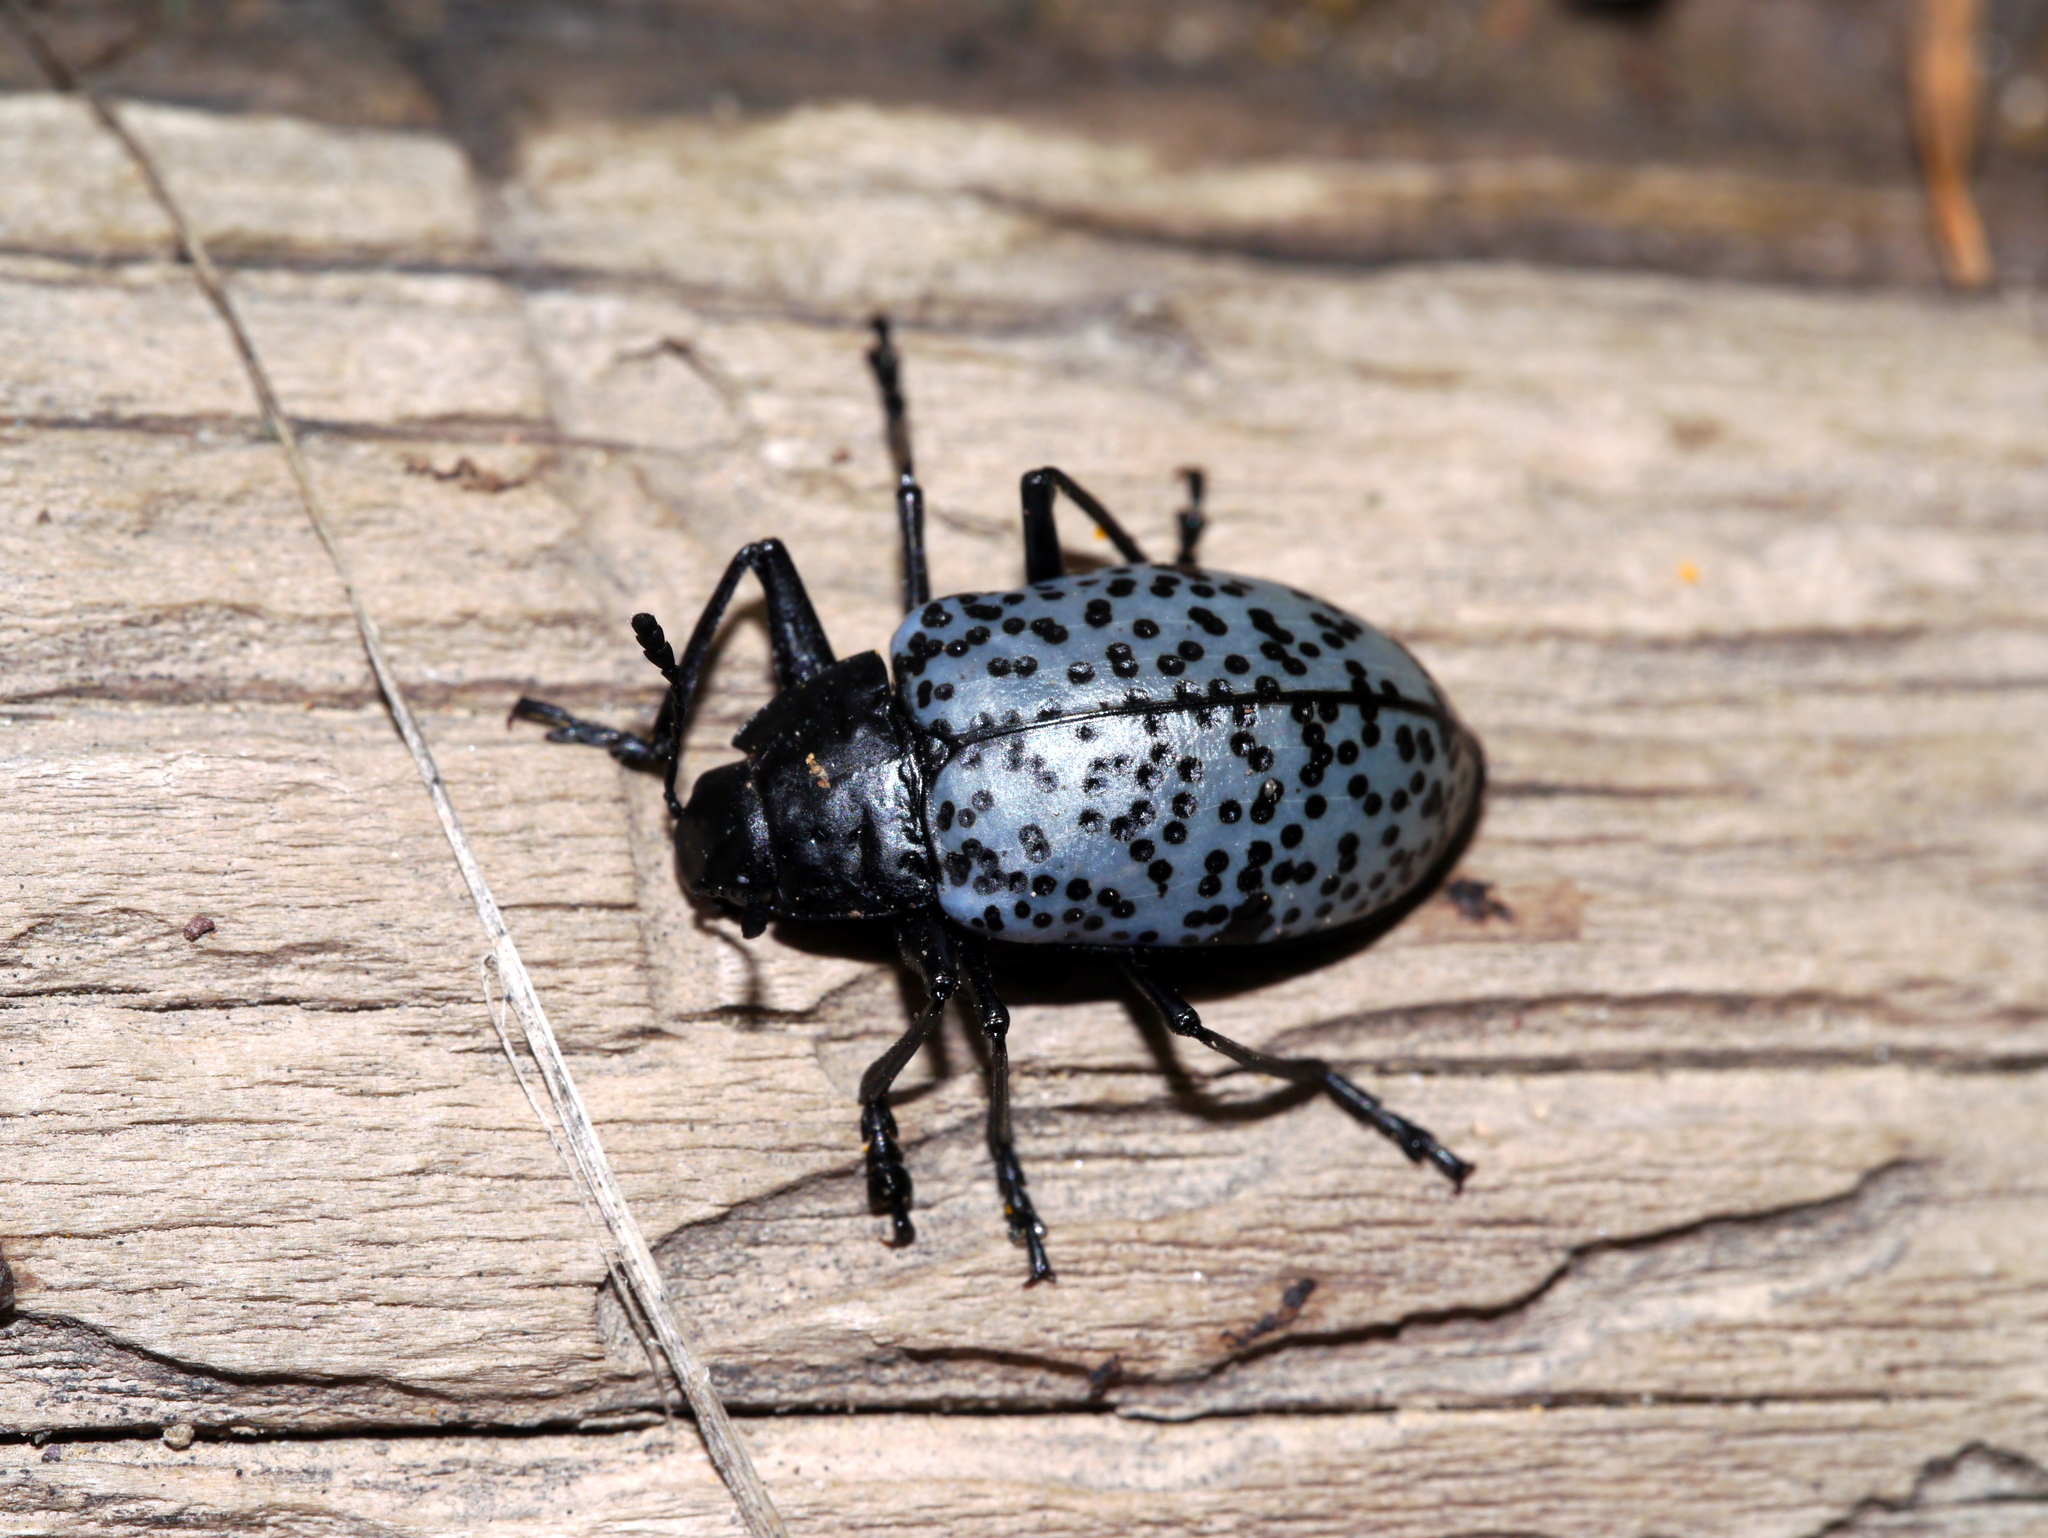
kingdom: Animalia
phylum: Arthropoda
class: Insecta
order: Coleoptera
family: Erotylidae
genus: Gibbifer
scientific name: Gibbifer californicus
